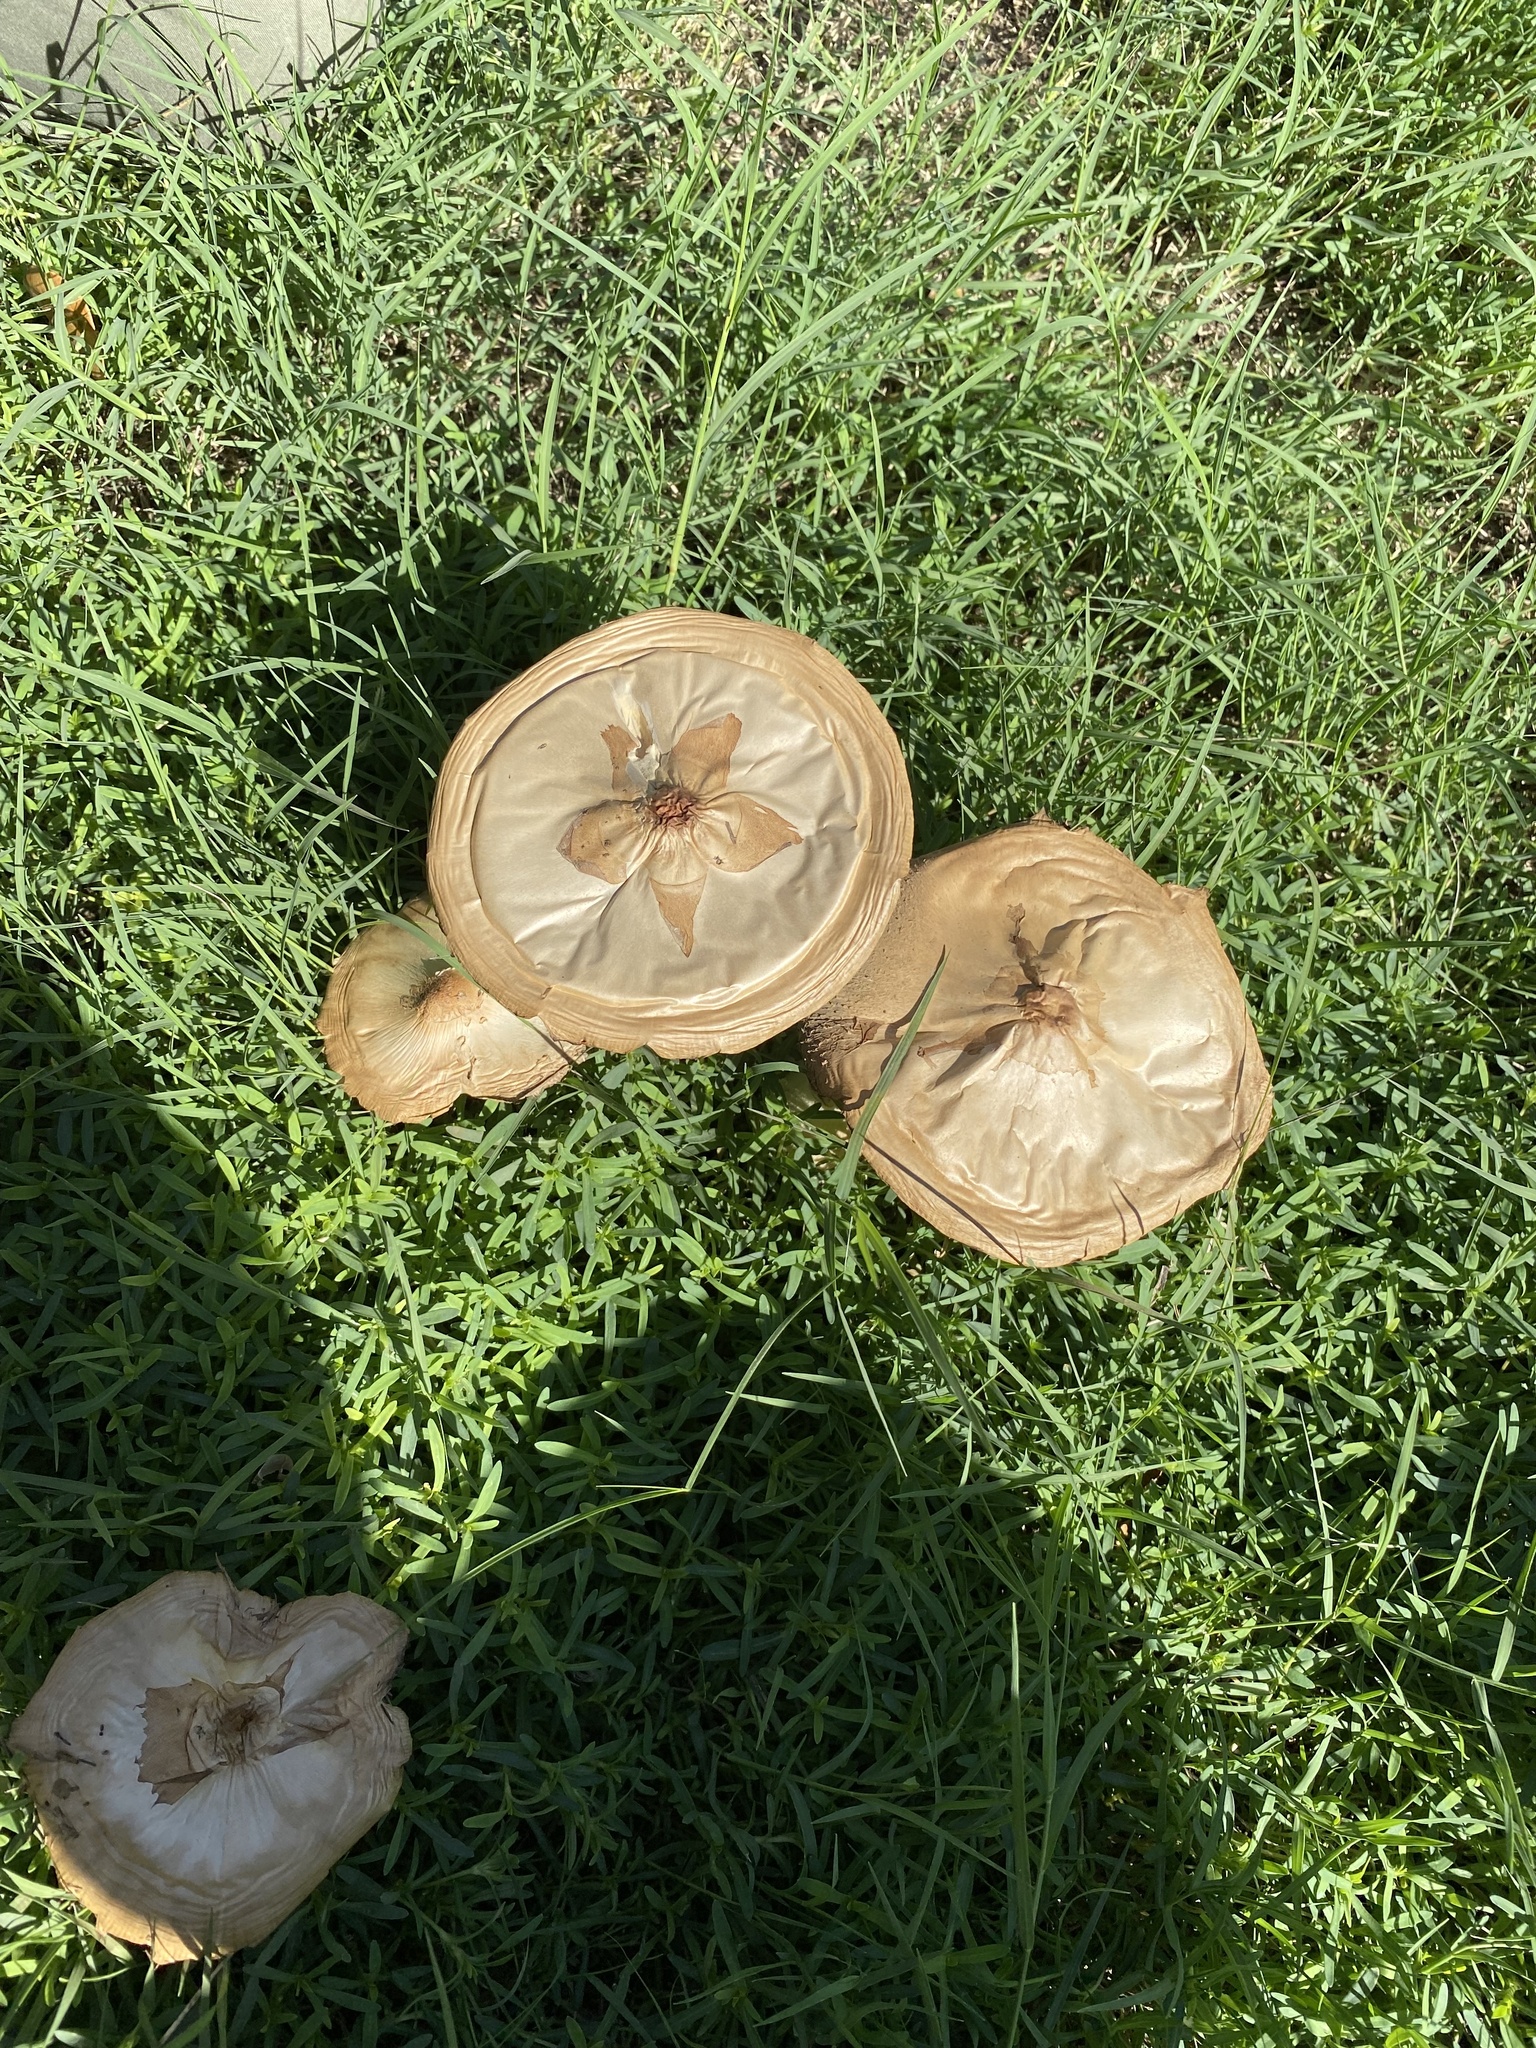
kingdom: Fungi
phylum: Basidiomycota
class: Agaricomycetes
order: Agaricales
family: Agaricaceae
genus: Chlorophyllum
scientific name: Chlorophyllum molybdites
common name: False parasol
